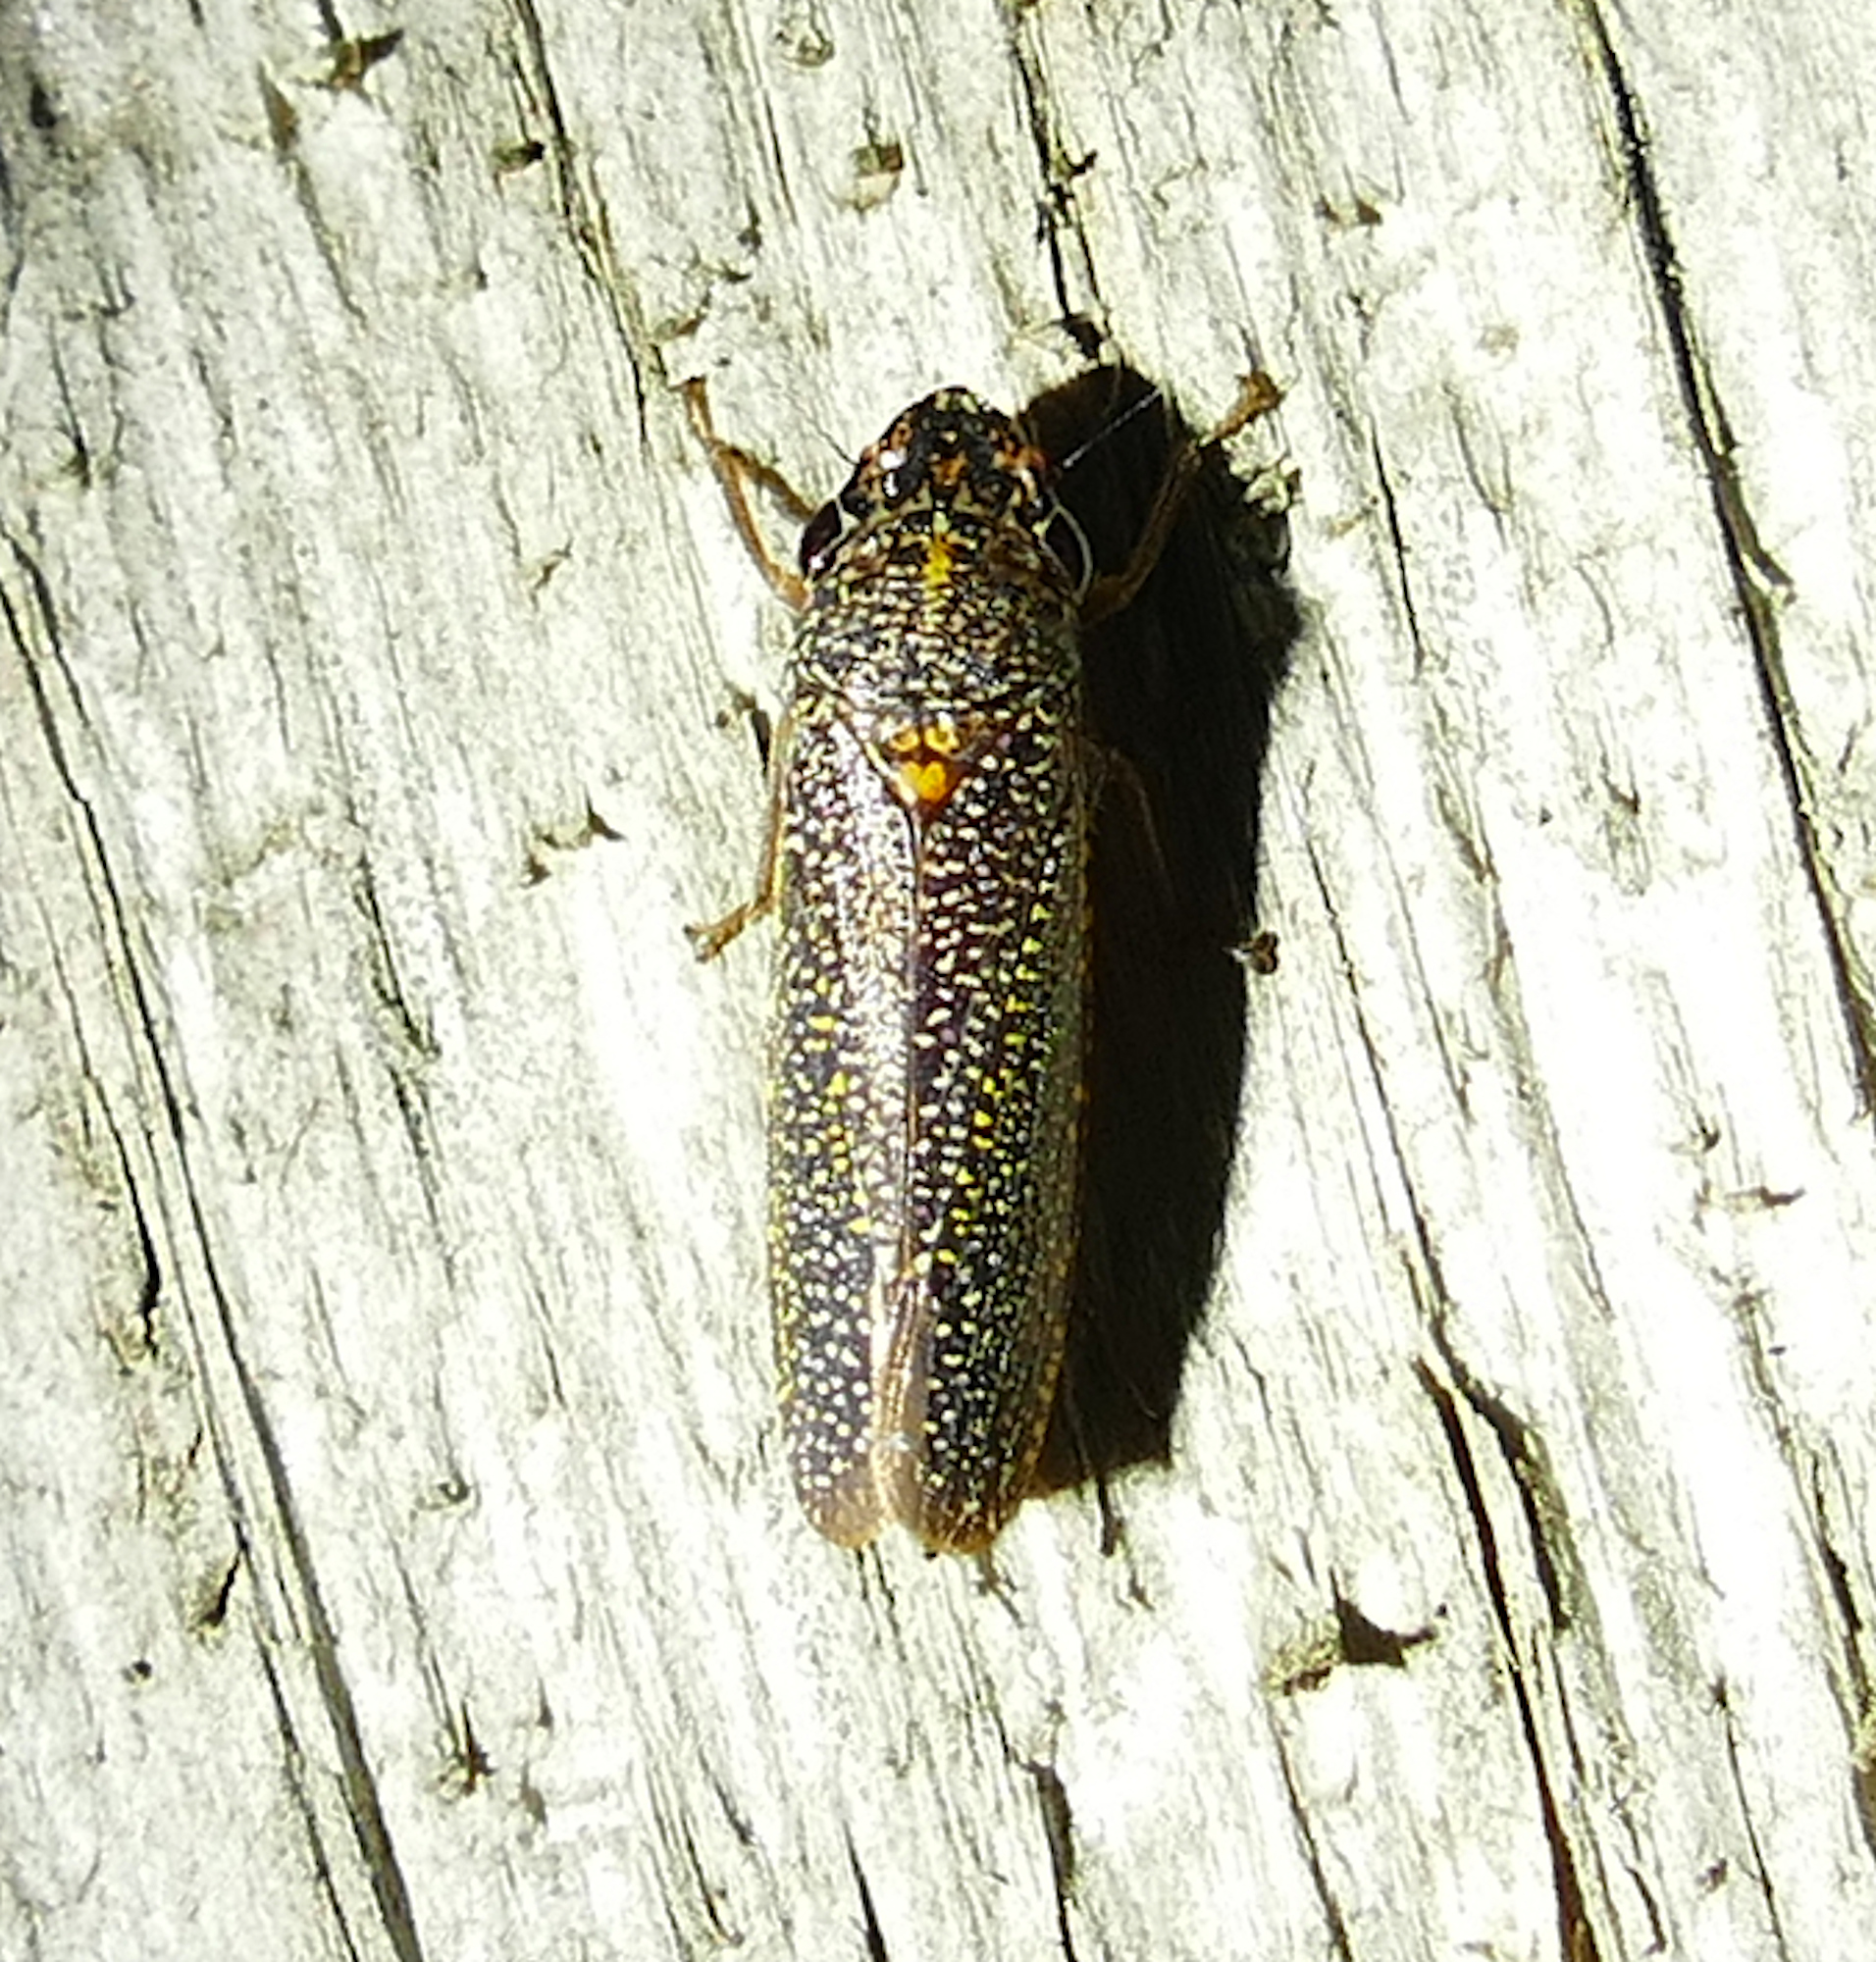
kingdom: Animalia
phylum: Arthropoda
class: Insecta
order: Hemiptera
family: Cicadellidae
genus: Paraulacizes
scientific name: Paraulacizes irrorata
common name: Speckled sharpshooter
